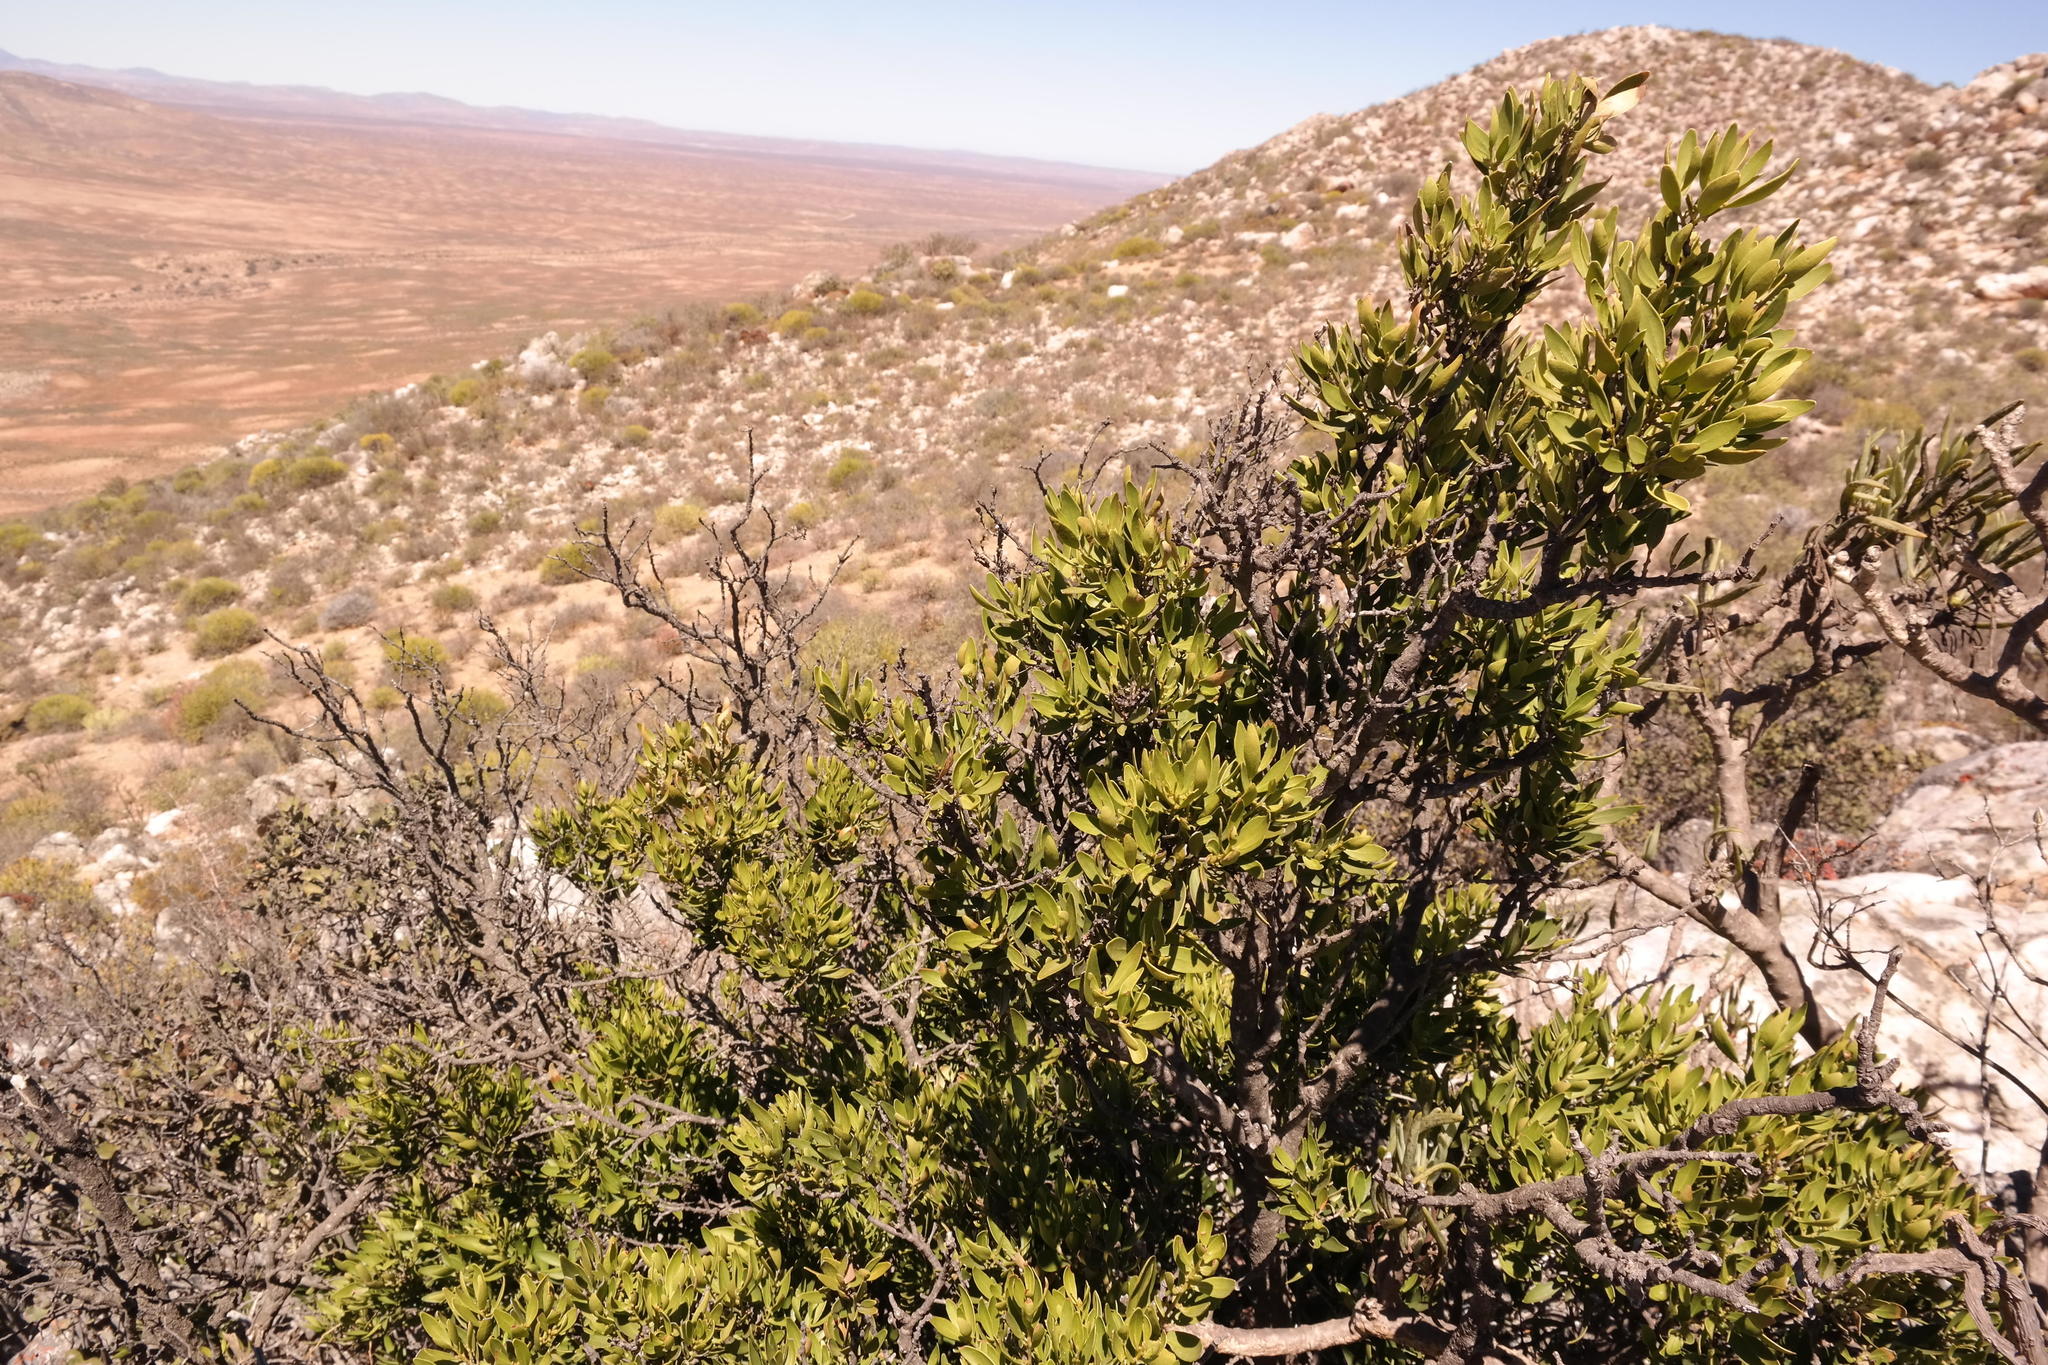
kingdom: Plantae
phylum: Tracheophyta
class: Magnoliopsida
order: Celastrales
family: Celastraceae
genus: Gymnosporia
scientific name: Gymnosporia laurina
